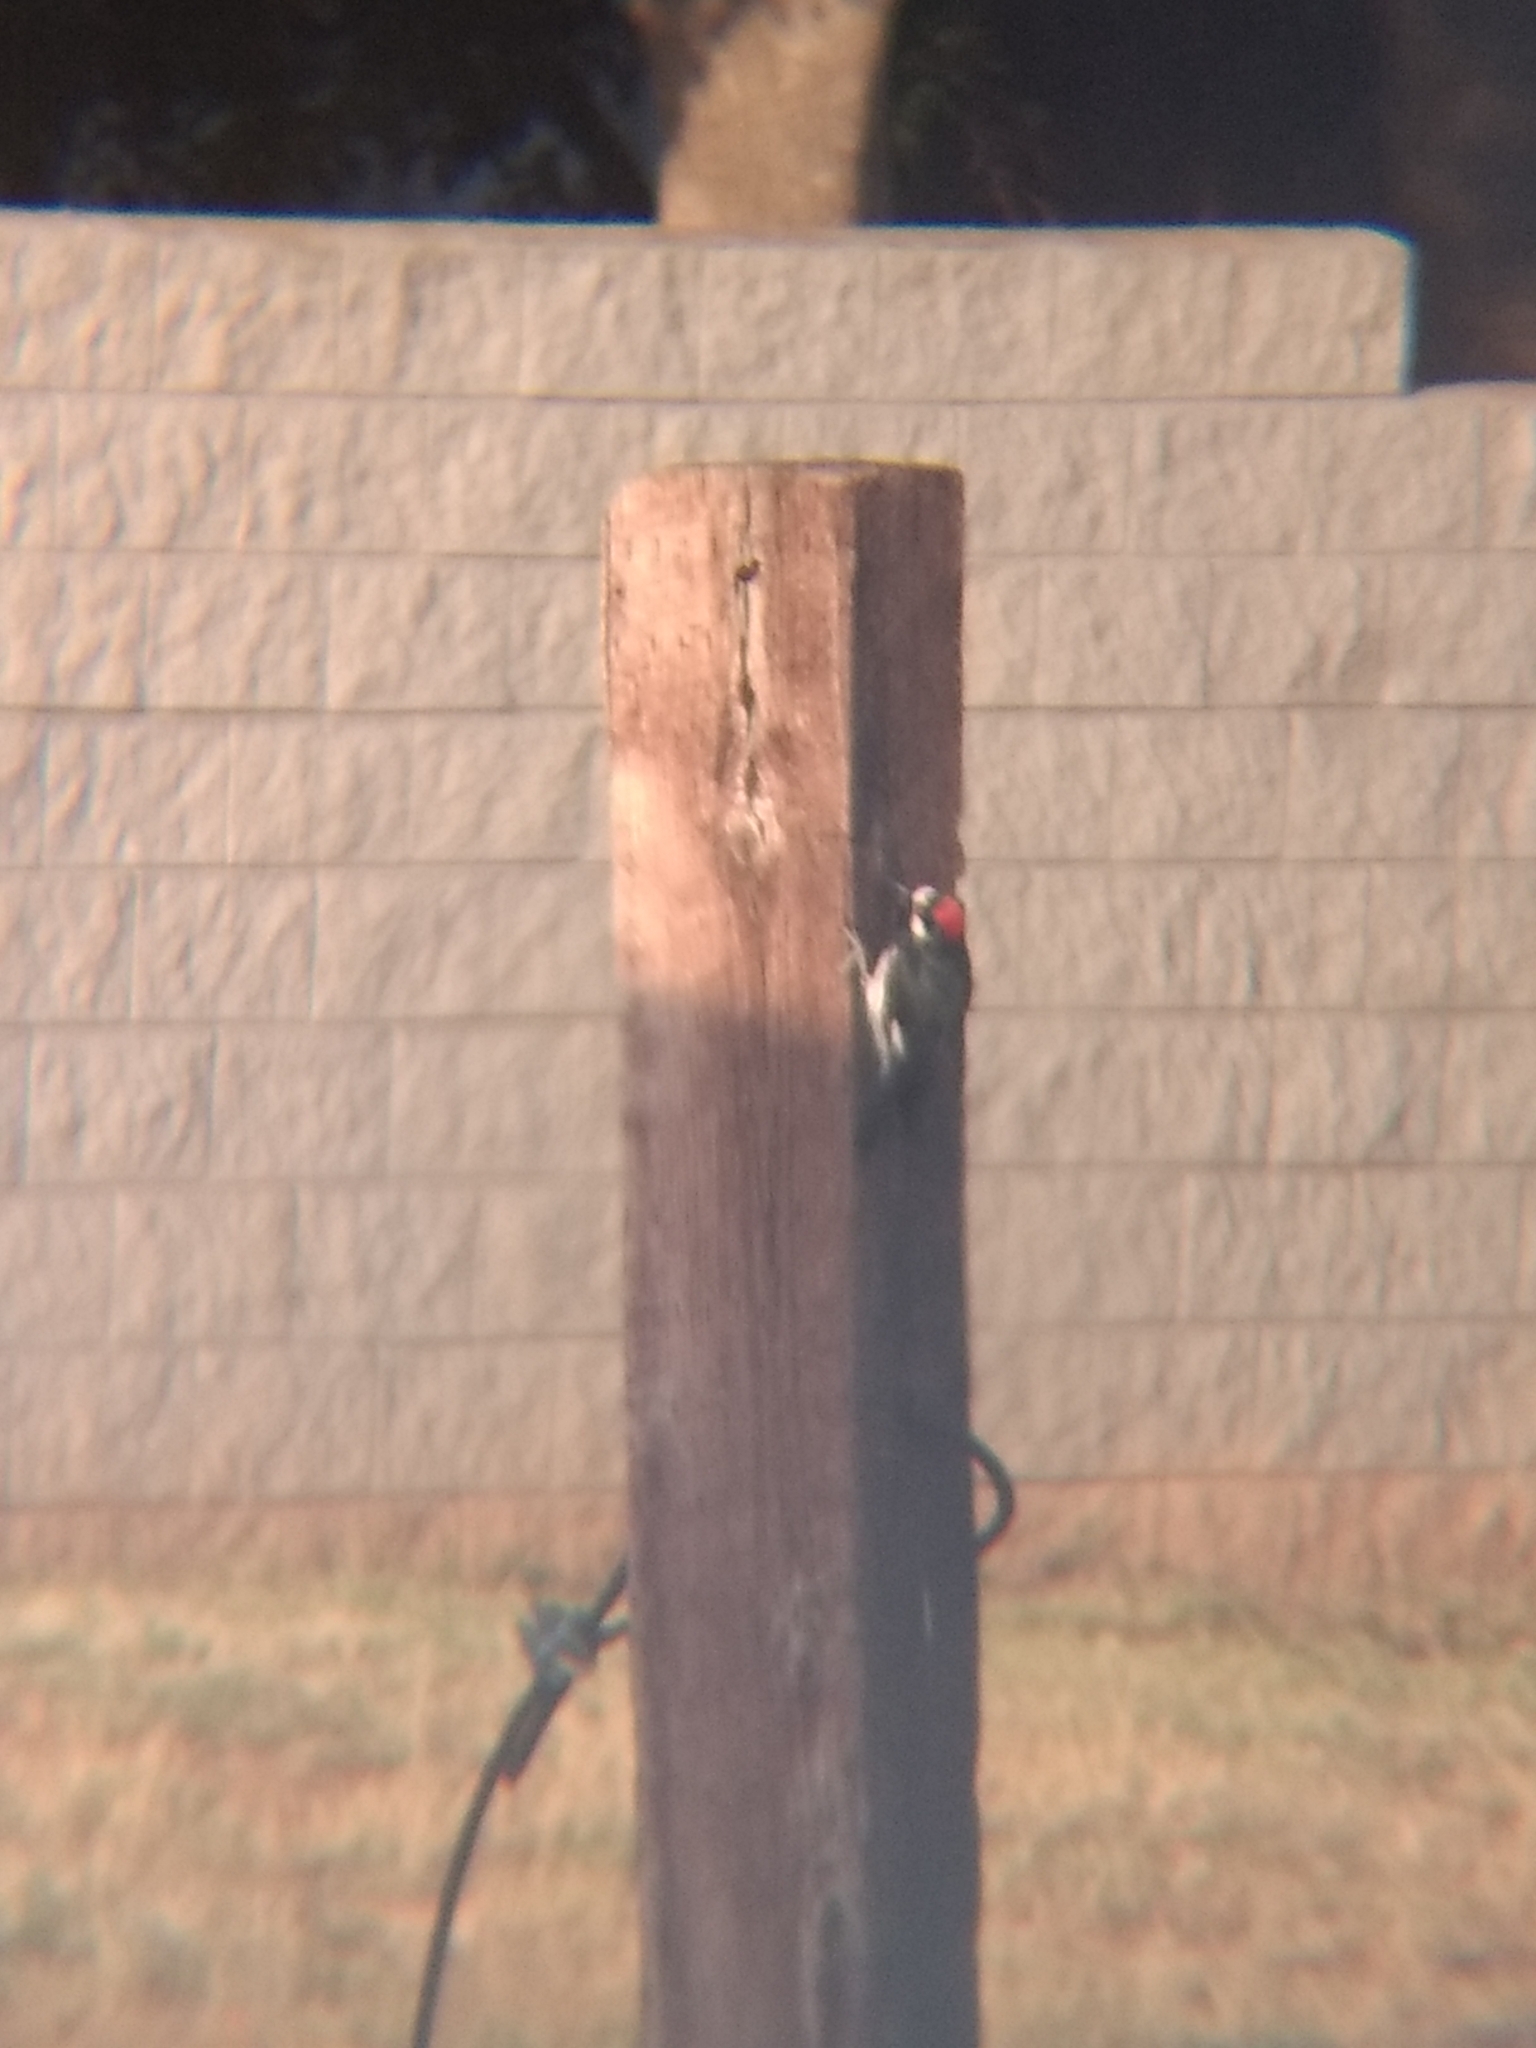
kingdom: Animalia
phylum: Chordata
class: Aves
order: Piciformes
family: Picidae
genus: Melanerpes
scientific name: Melanerpes formicivorus
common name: Acorn woodpecker
